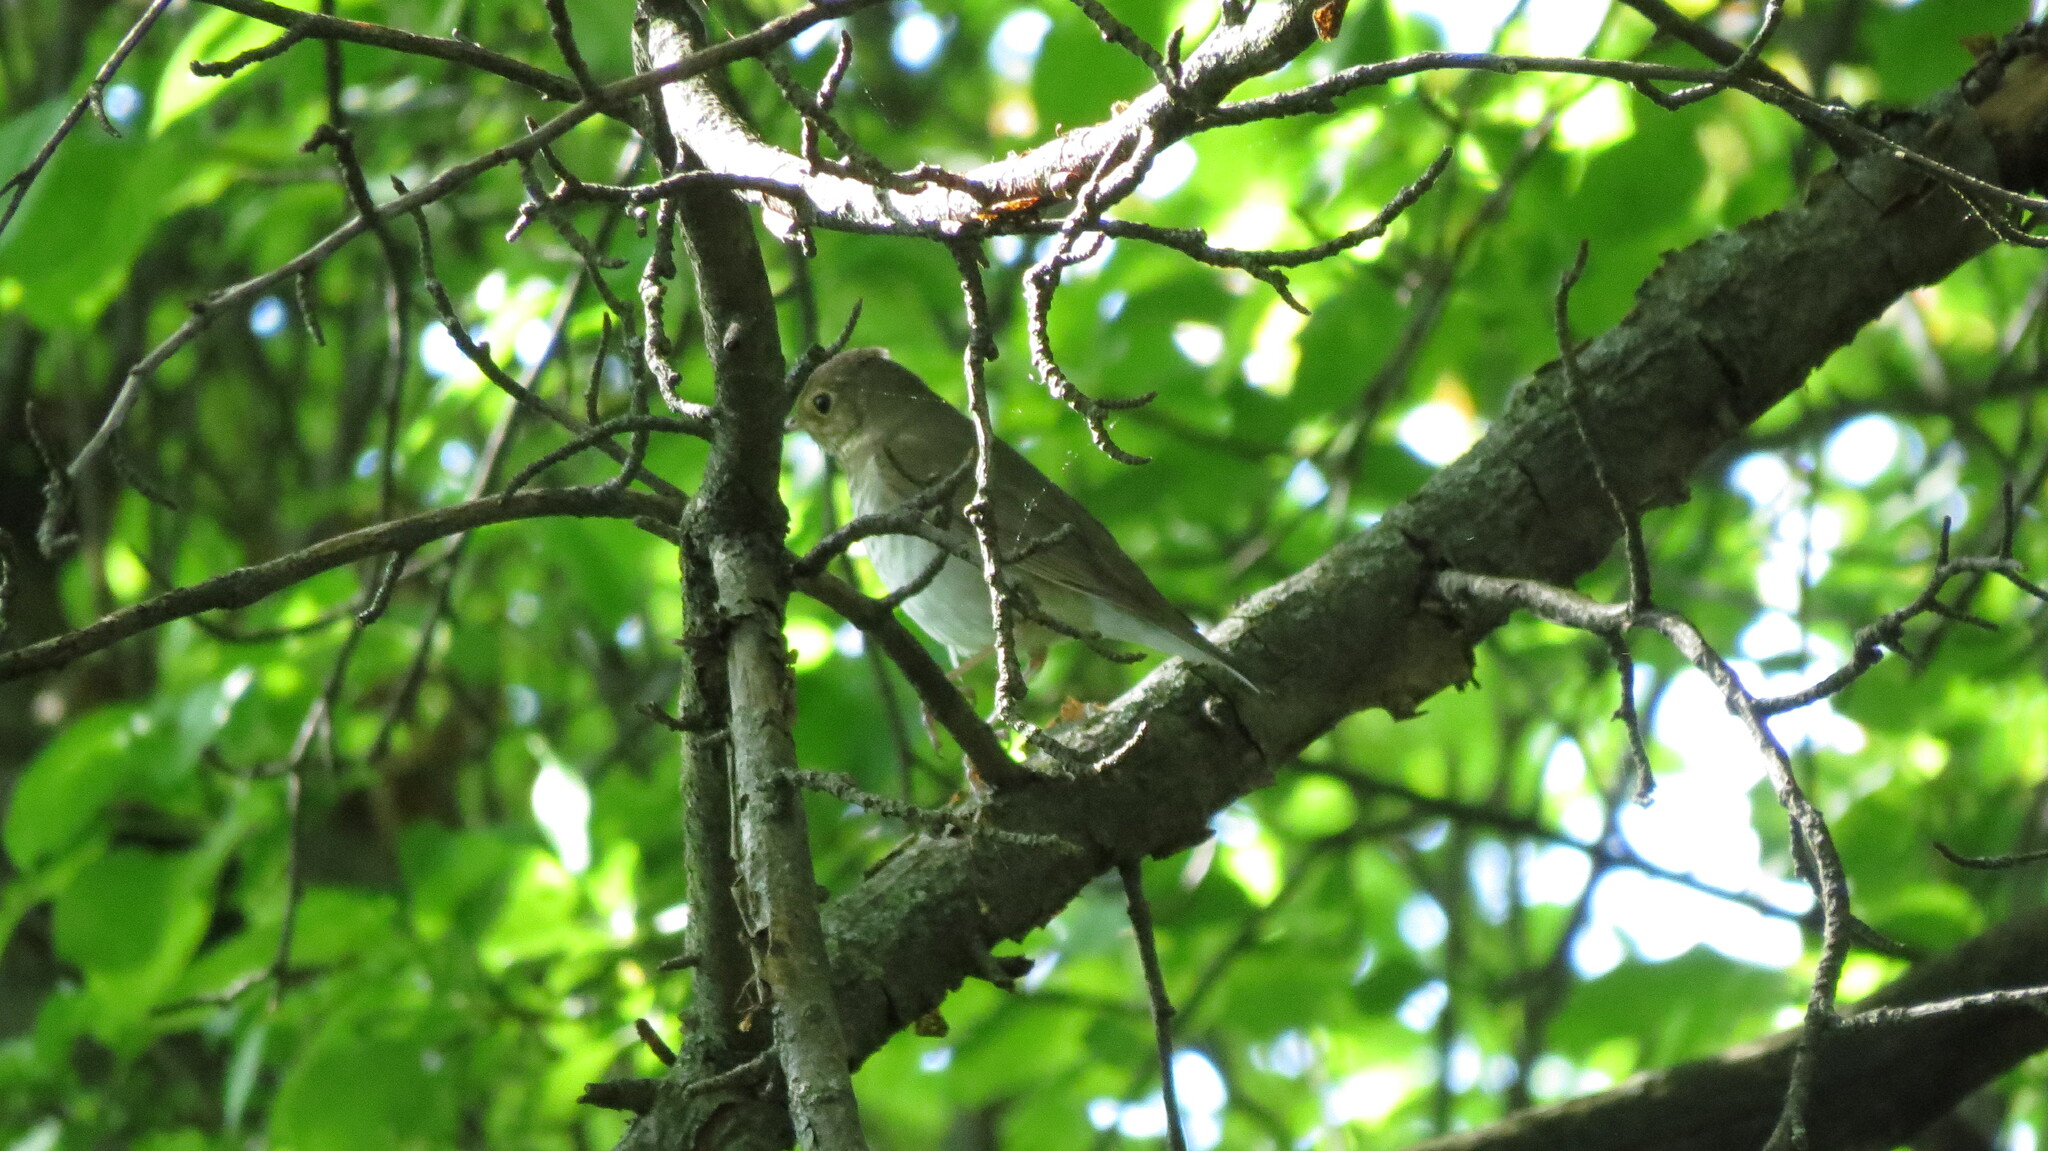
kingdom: Animalia
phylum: Chordata
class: Aves
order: Passeriformes
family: Turdidae
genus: Catharus
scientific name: Catharus ustulatus
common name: Swainson's thrush
